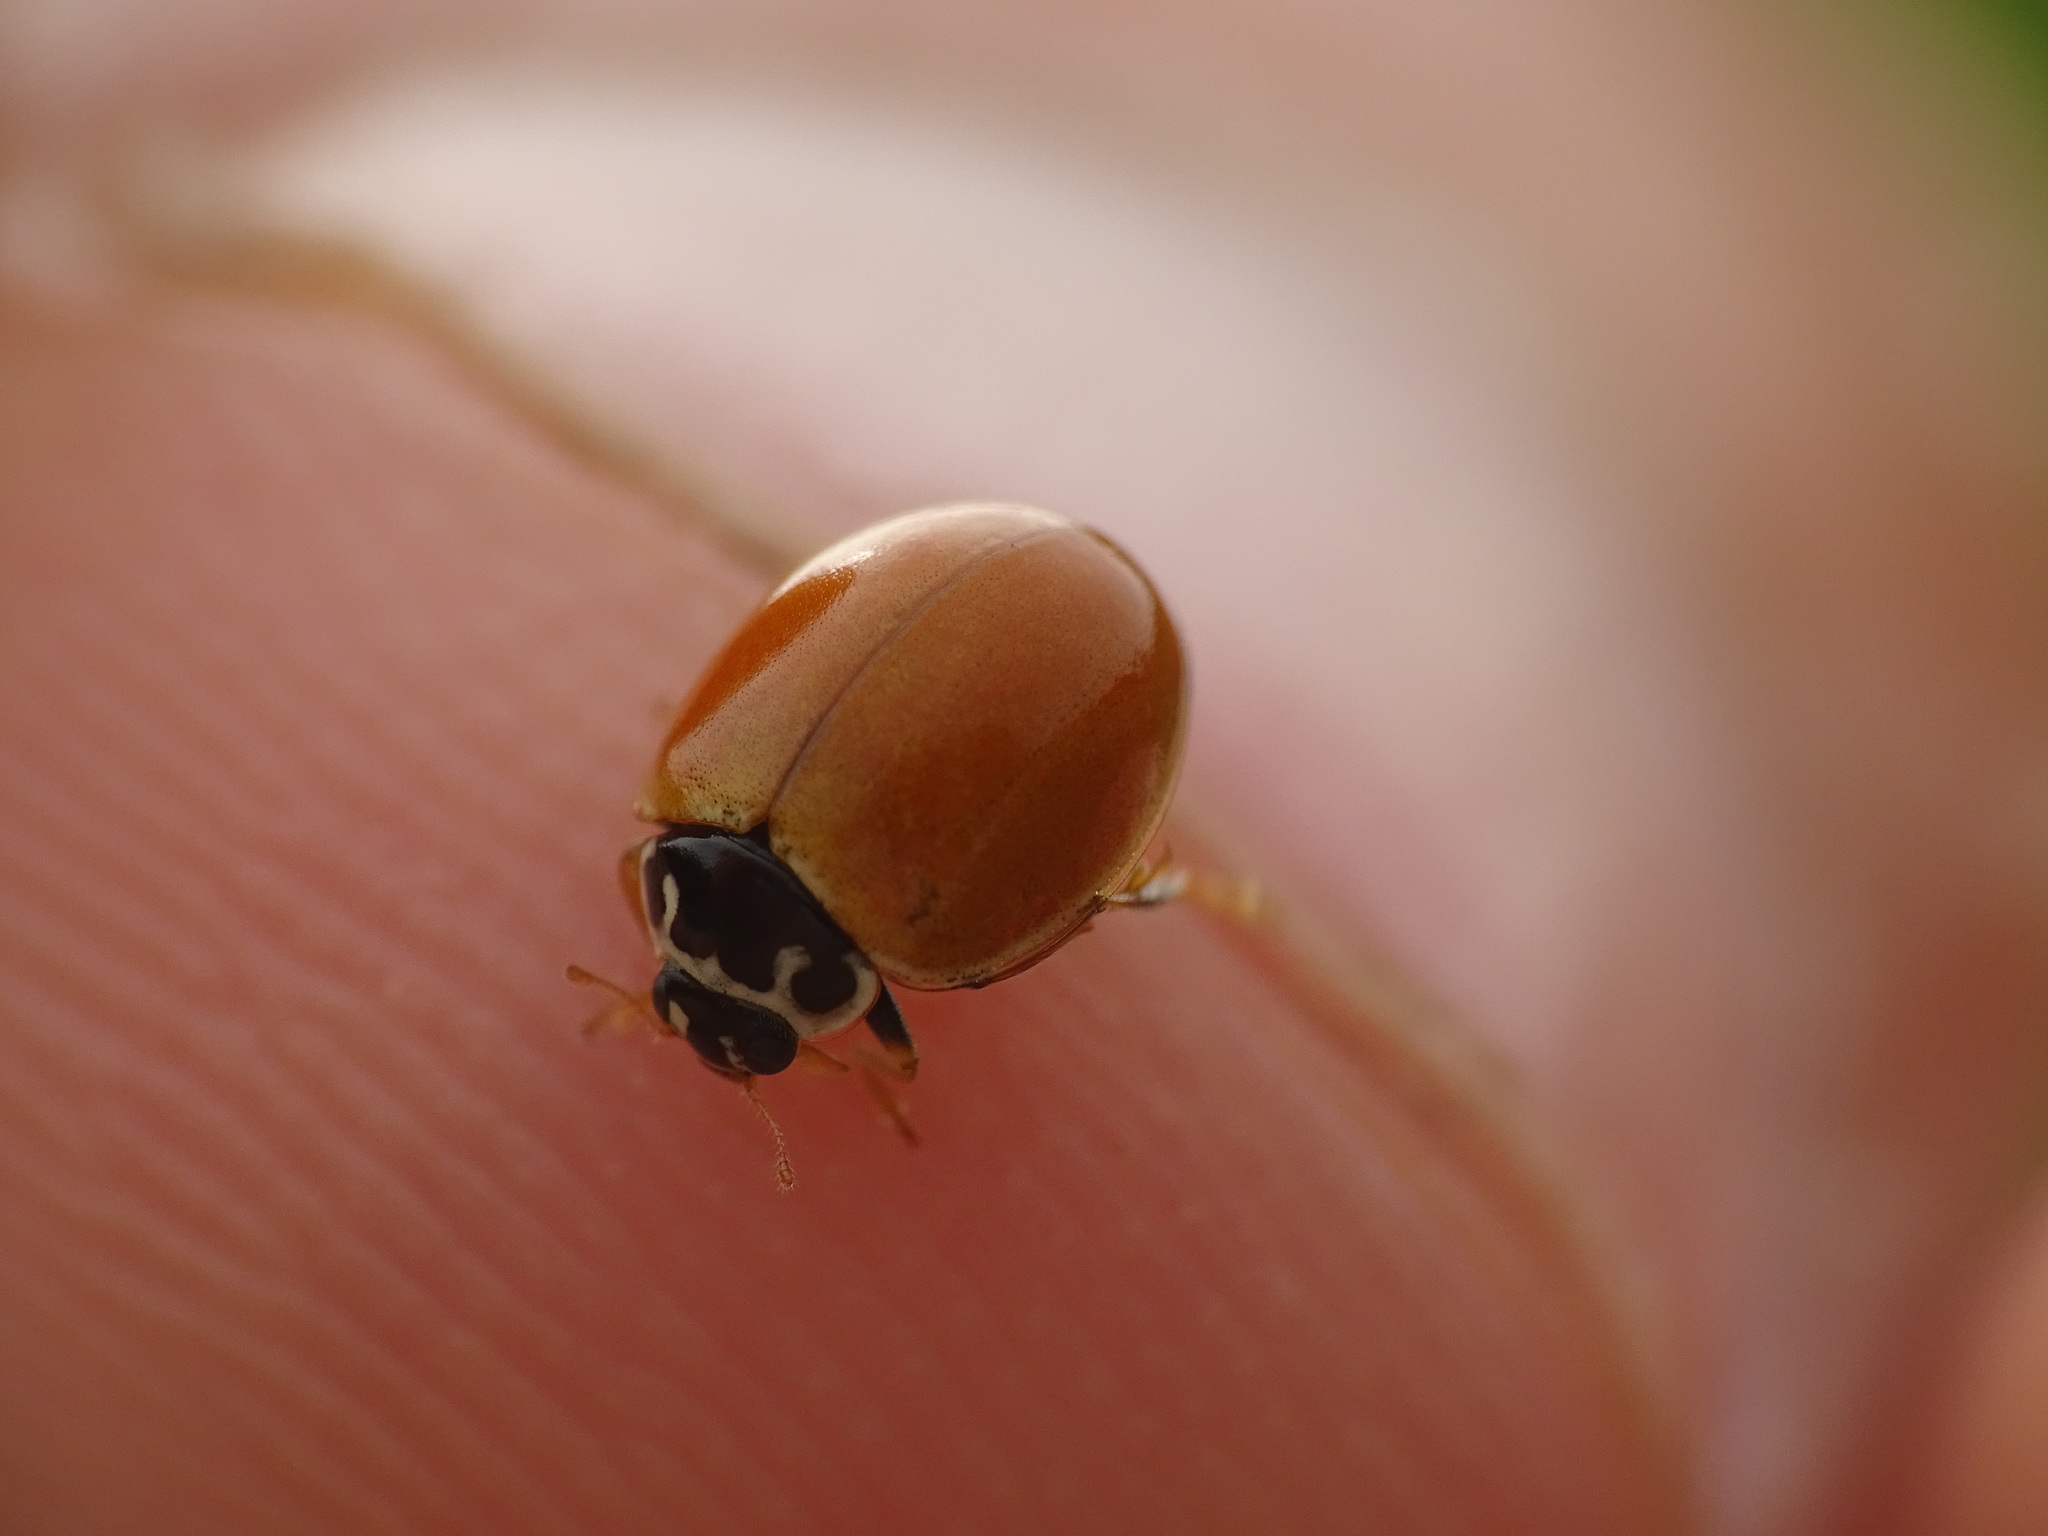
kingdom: Animalia
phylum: Arthropoda
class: Insecta
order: Coleoptera
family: Coccinellidae
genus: Cycloneda
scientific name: Cycloneda munda
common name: Polished lady beetle
